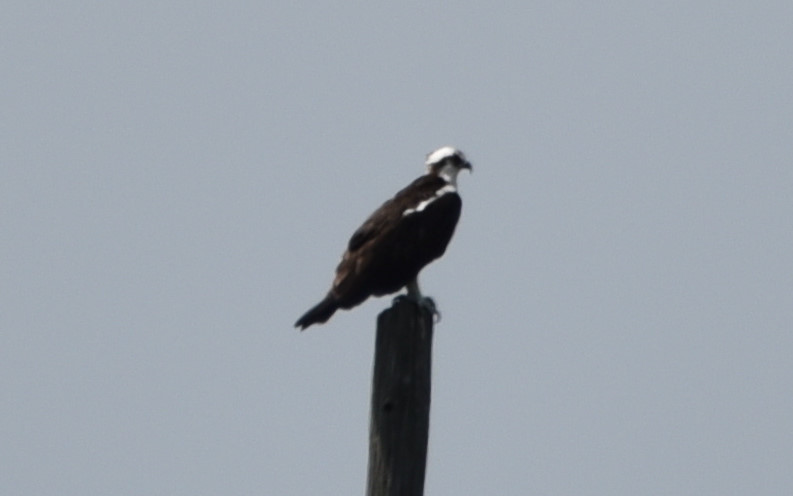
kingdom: Animalia
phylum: Chordata
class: Aves
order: Accipitriformes
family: Pandionidae
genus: Pandion
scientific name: Pandion haliaetus
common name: Osprey
